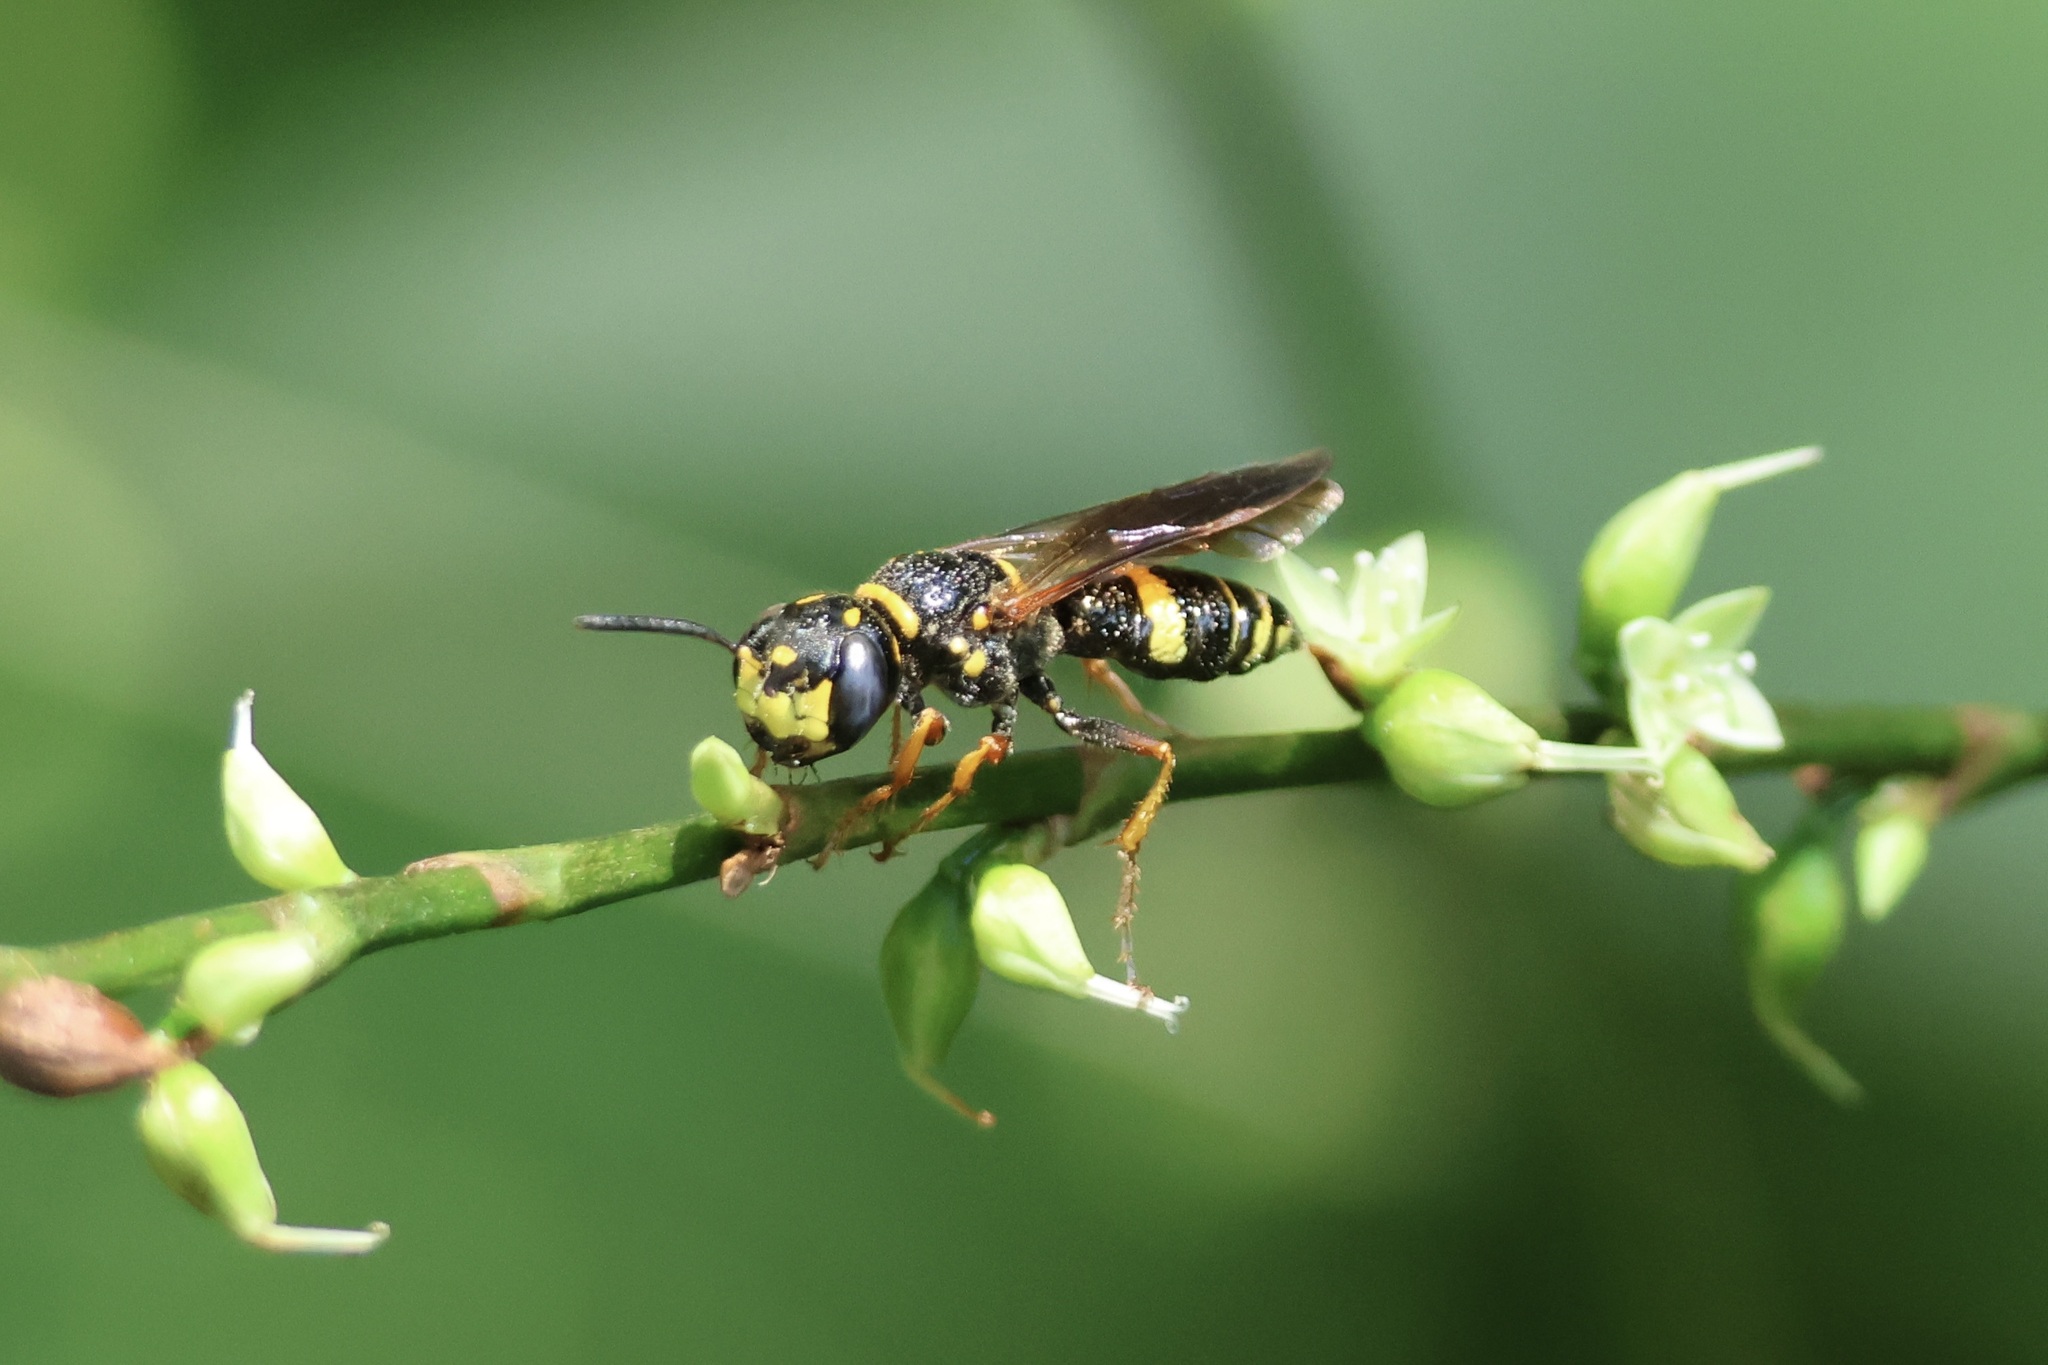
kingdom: Animalia
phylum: Arthropoda
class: Insecta
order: Hymenoptera
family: Crabronidae
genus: Philanthus
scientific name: Philanthus gibbosus
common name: Humped beewolf
